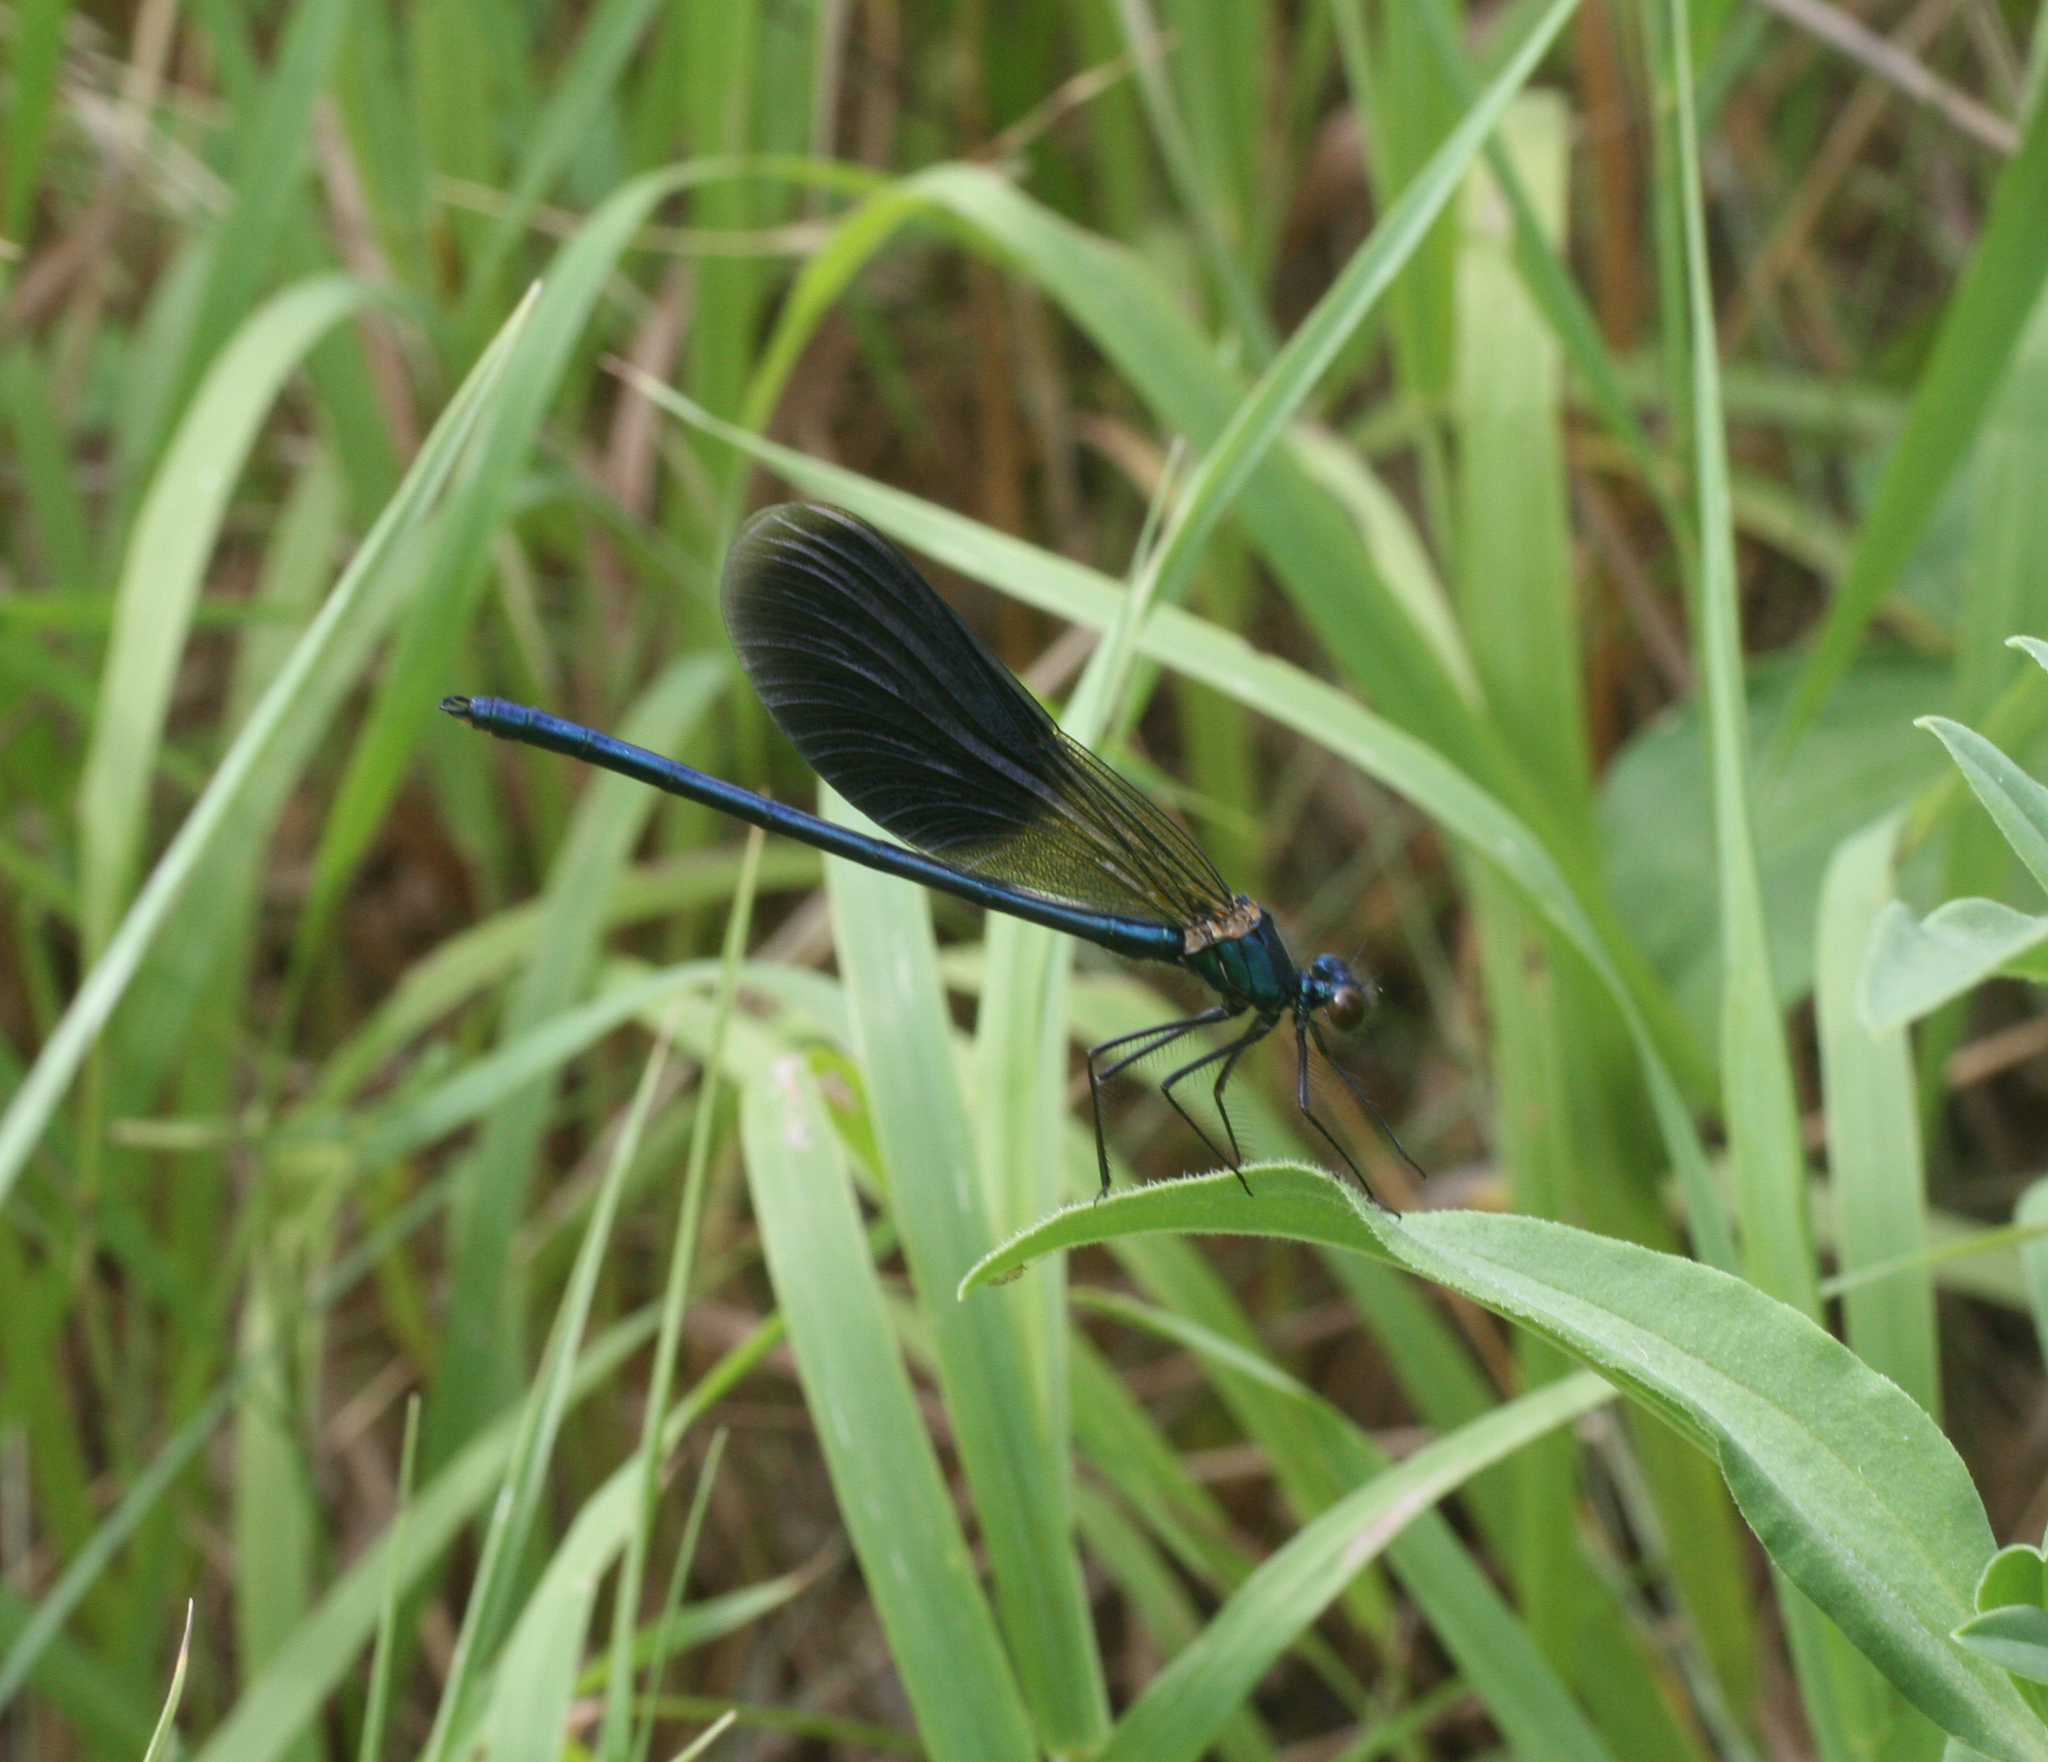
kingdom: Animalia
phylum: Arthropoda
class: Insecta
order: Odonata
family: Calopterygidae
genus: Calopteryx
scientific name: Calopteryx splendens
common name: Banded demoiselle
